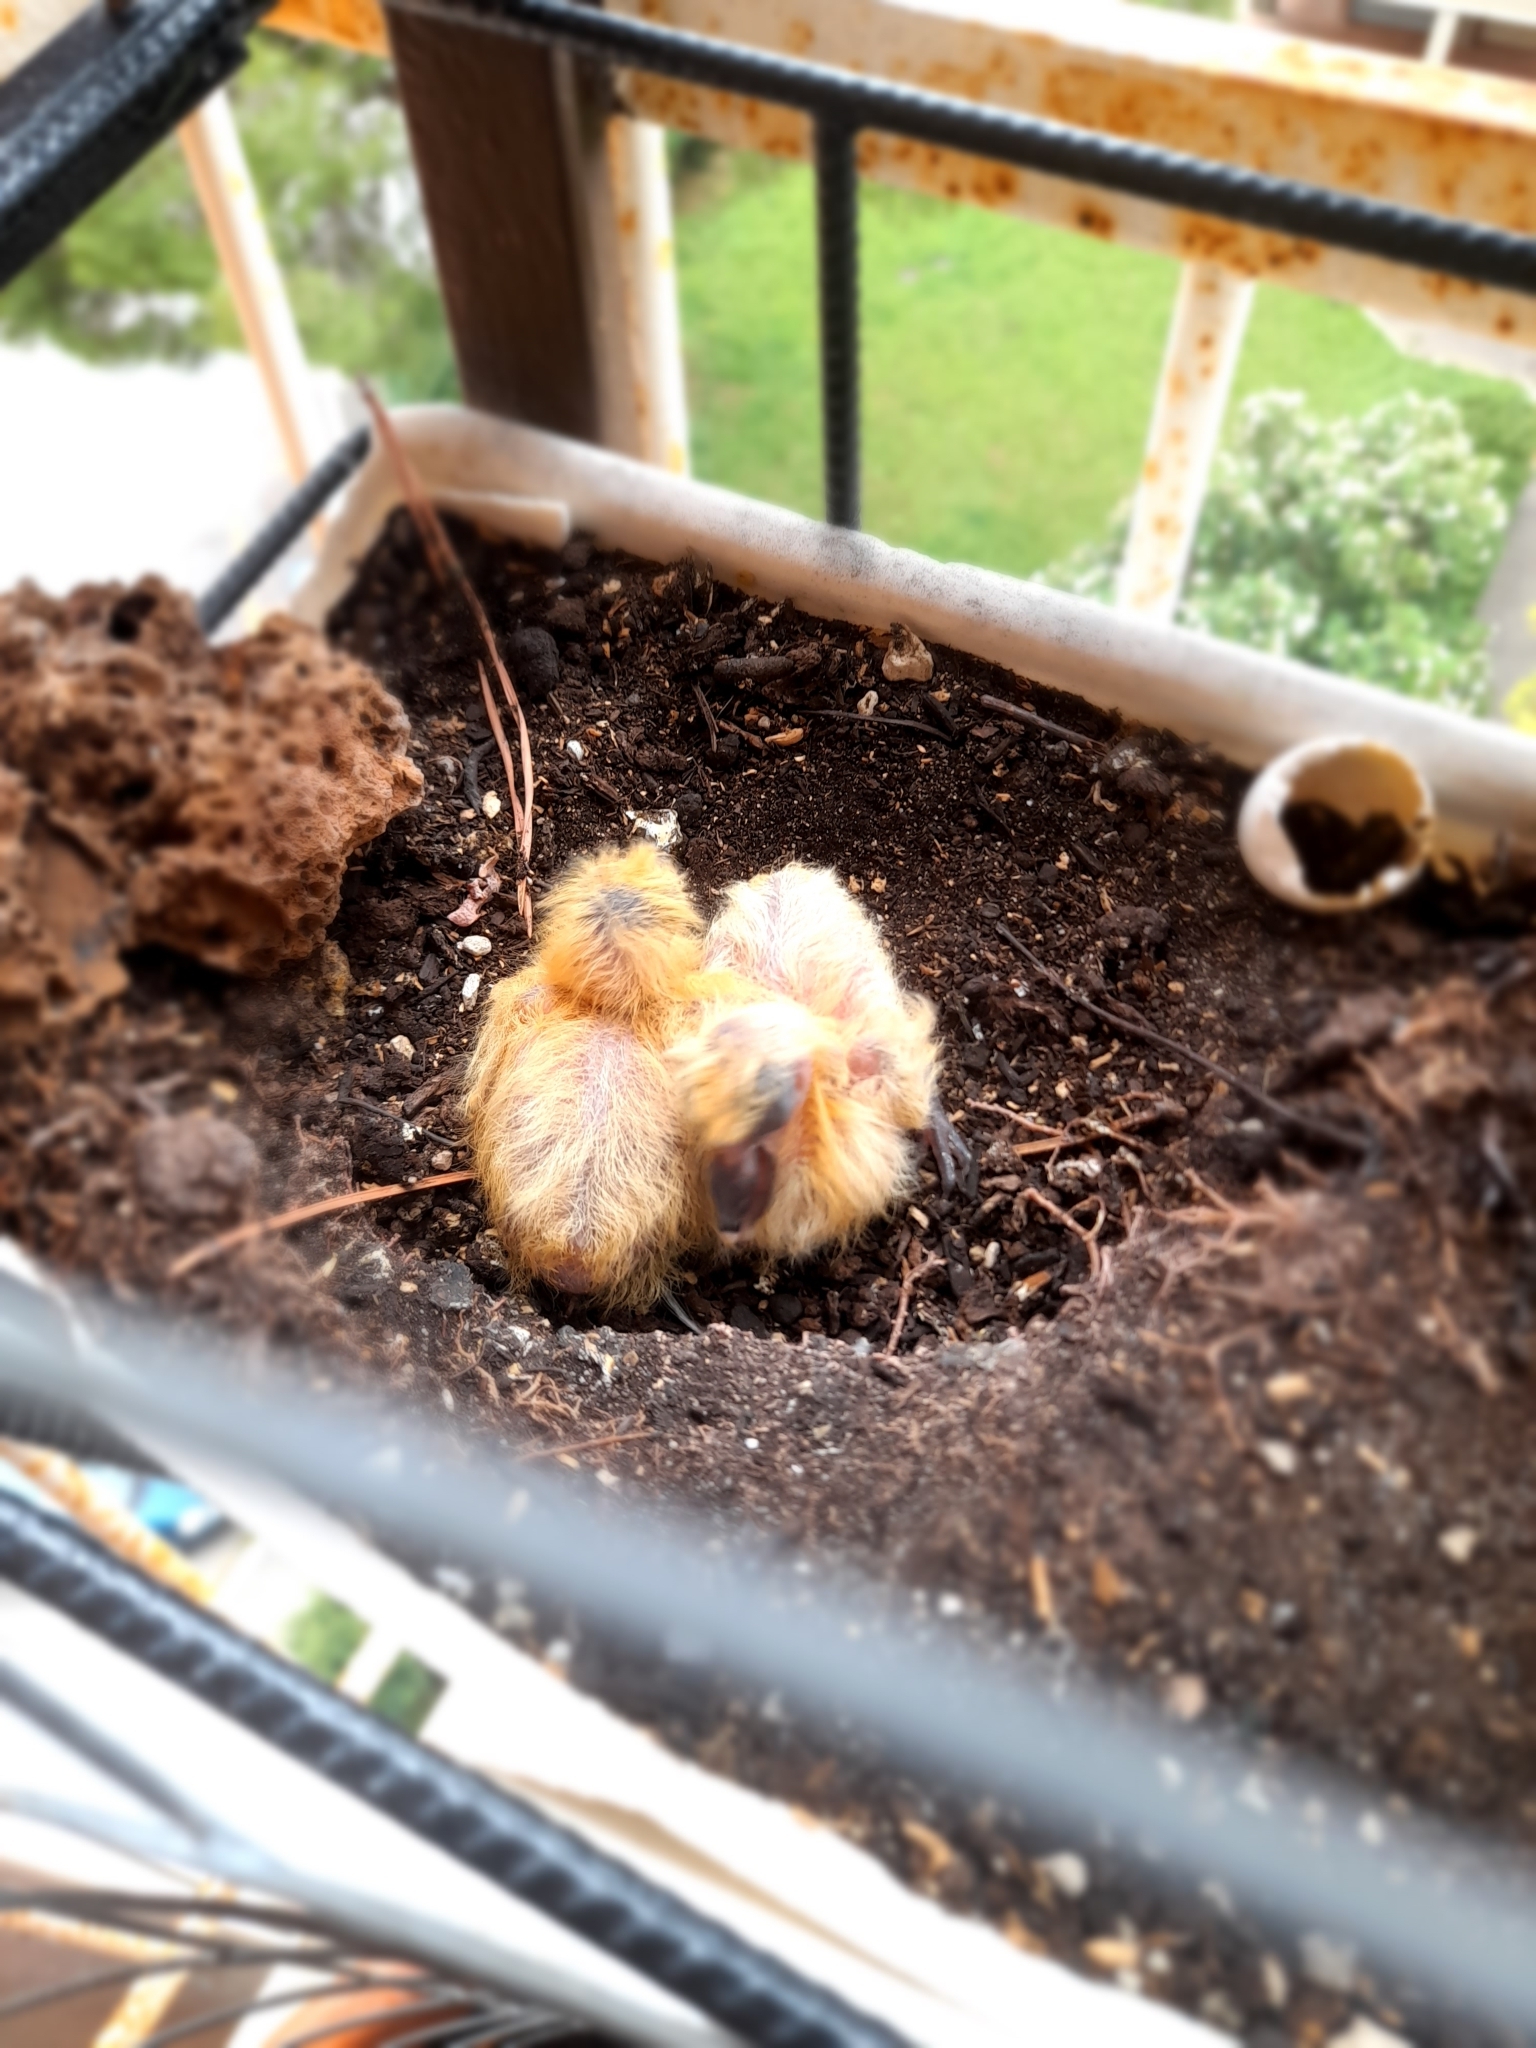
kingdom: Animalia
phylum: Chordata
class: Aves
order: Columbiformes
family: Columbidae
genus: Columba
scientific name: Columba livia
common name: Rock pigeon
